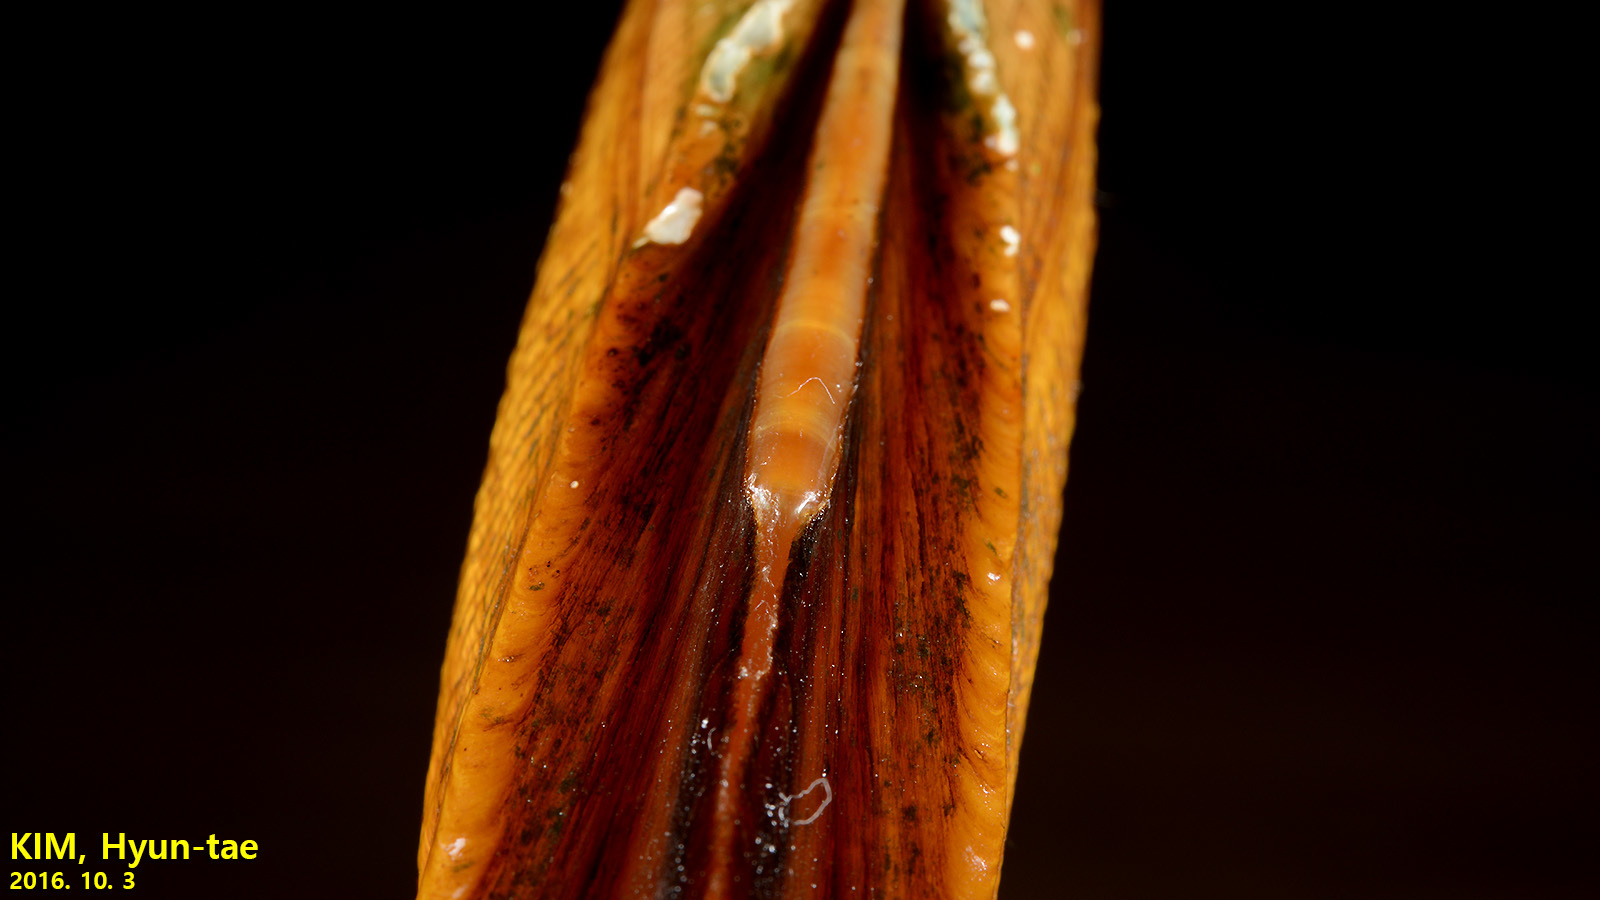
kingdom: Animalia
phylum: Mollusca
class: Bivalvia
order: Unionida
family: Unionidae
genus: Lanceolaria
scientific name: Lanceolaria acrorrhyncha
